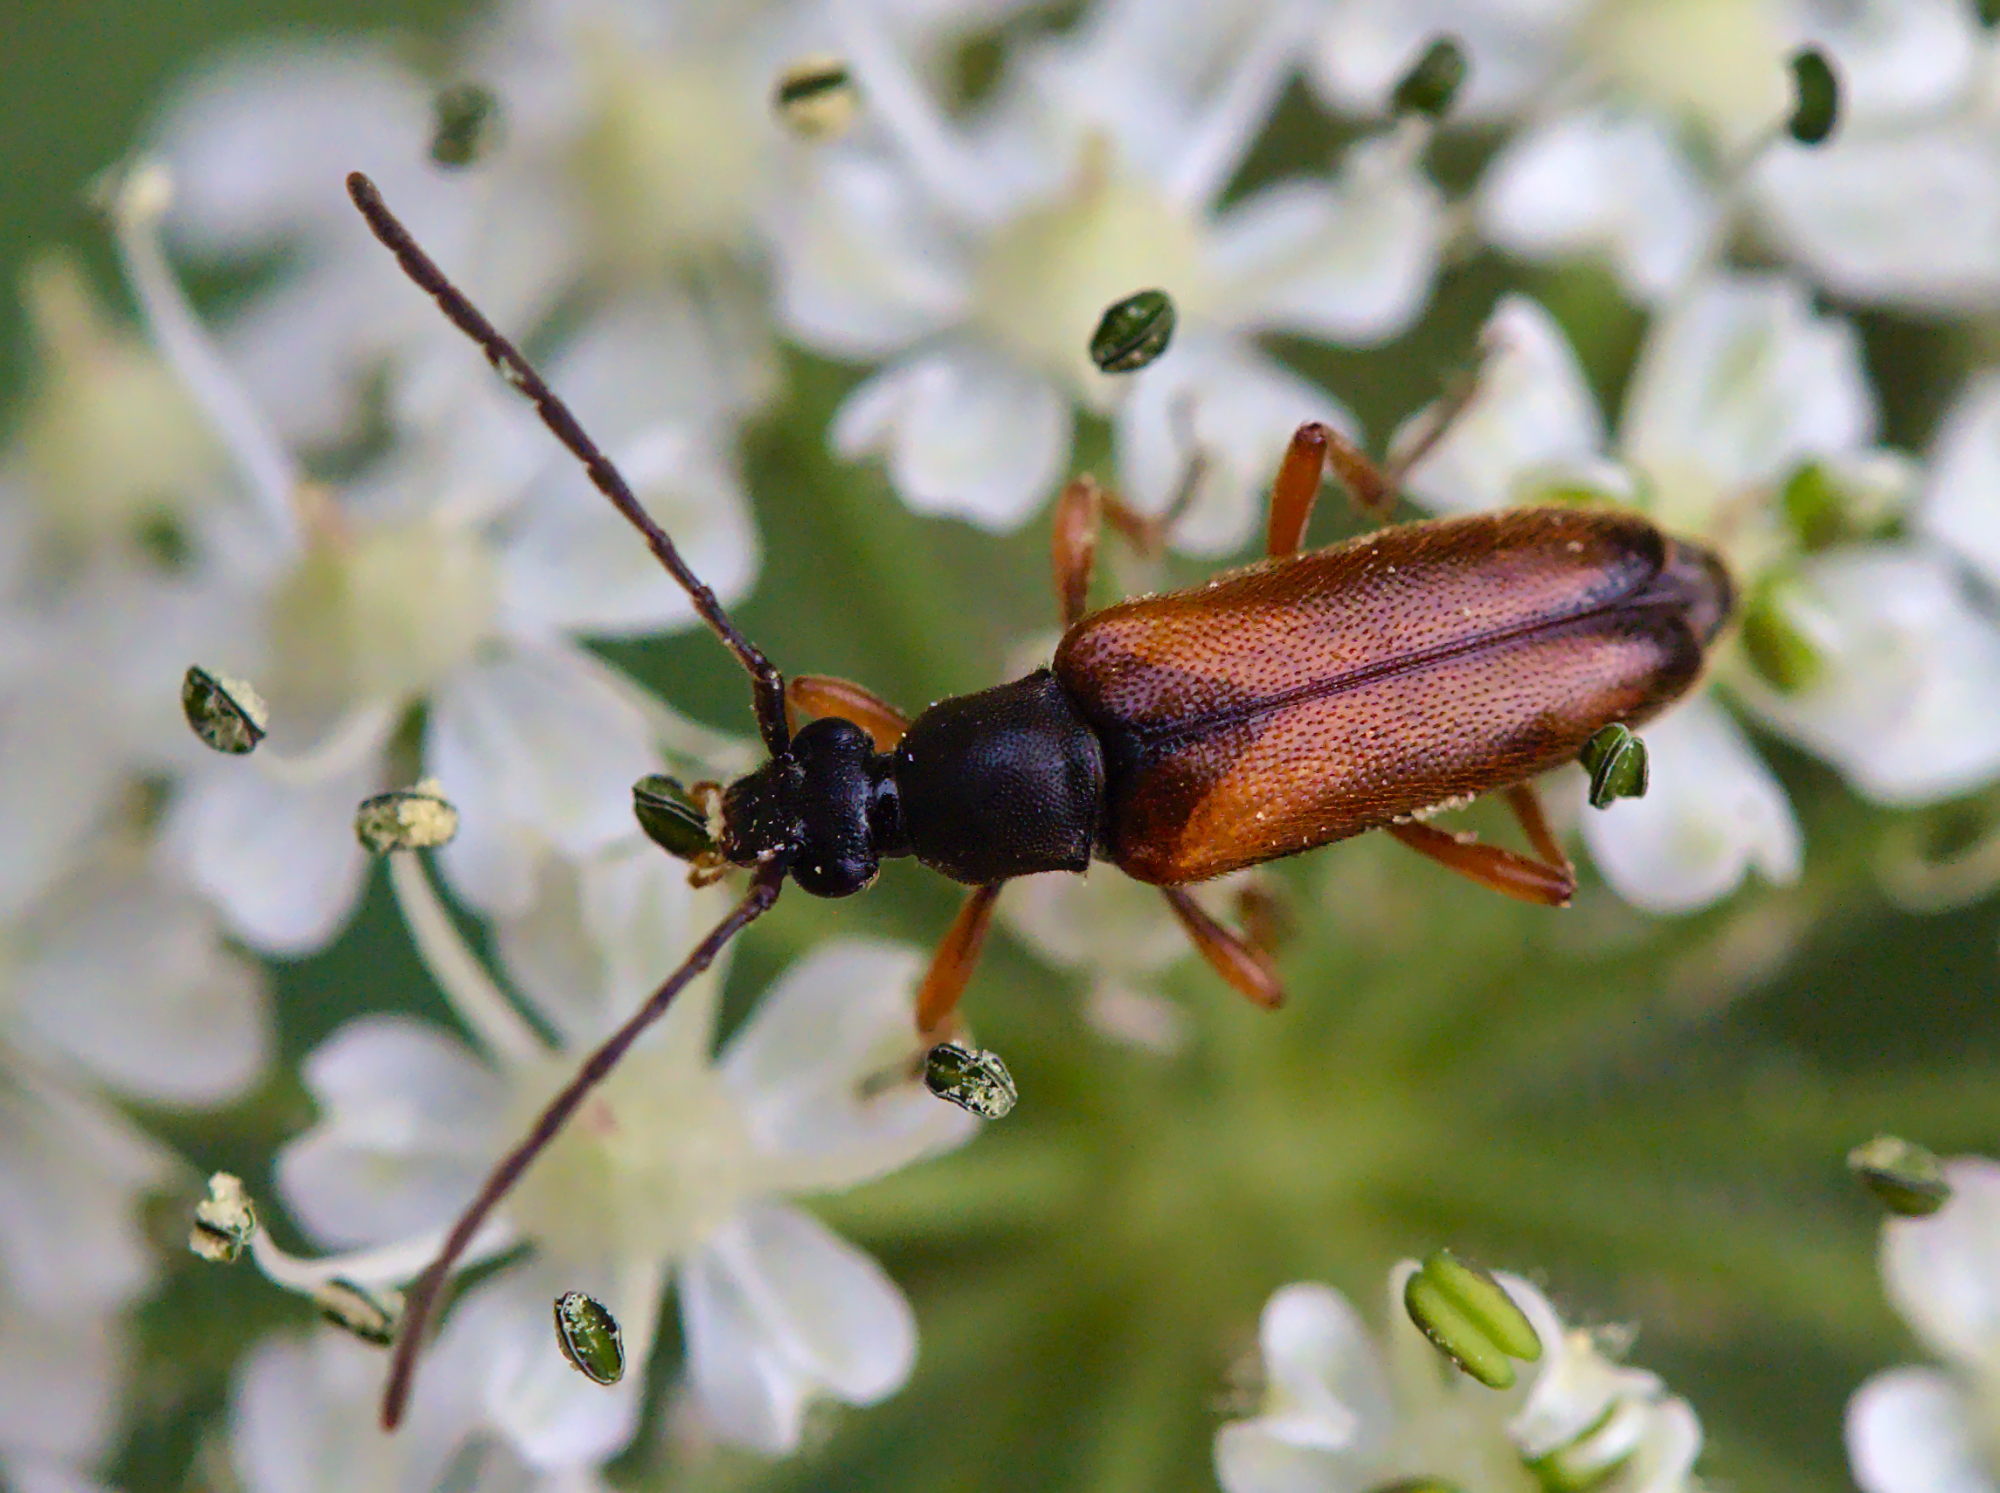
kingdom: Animalia
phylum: Arthropoda
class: Insecta
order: Coleoptera
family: Cerambycidae
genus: Alosterna
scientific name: Alosterna tabacicolor
